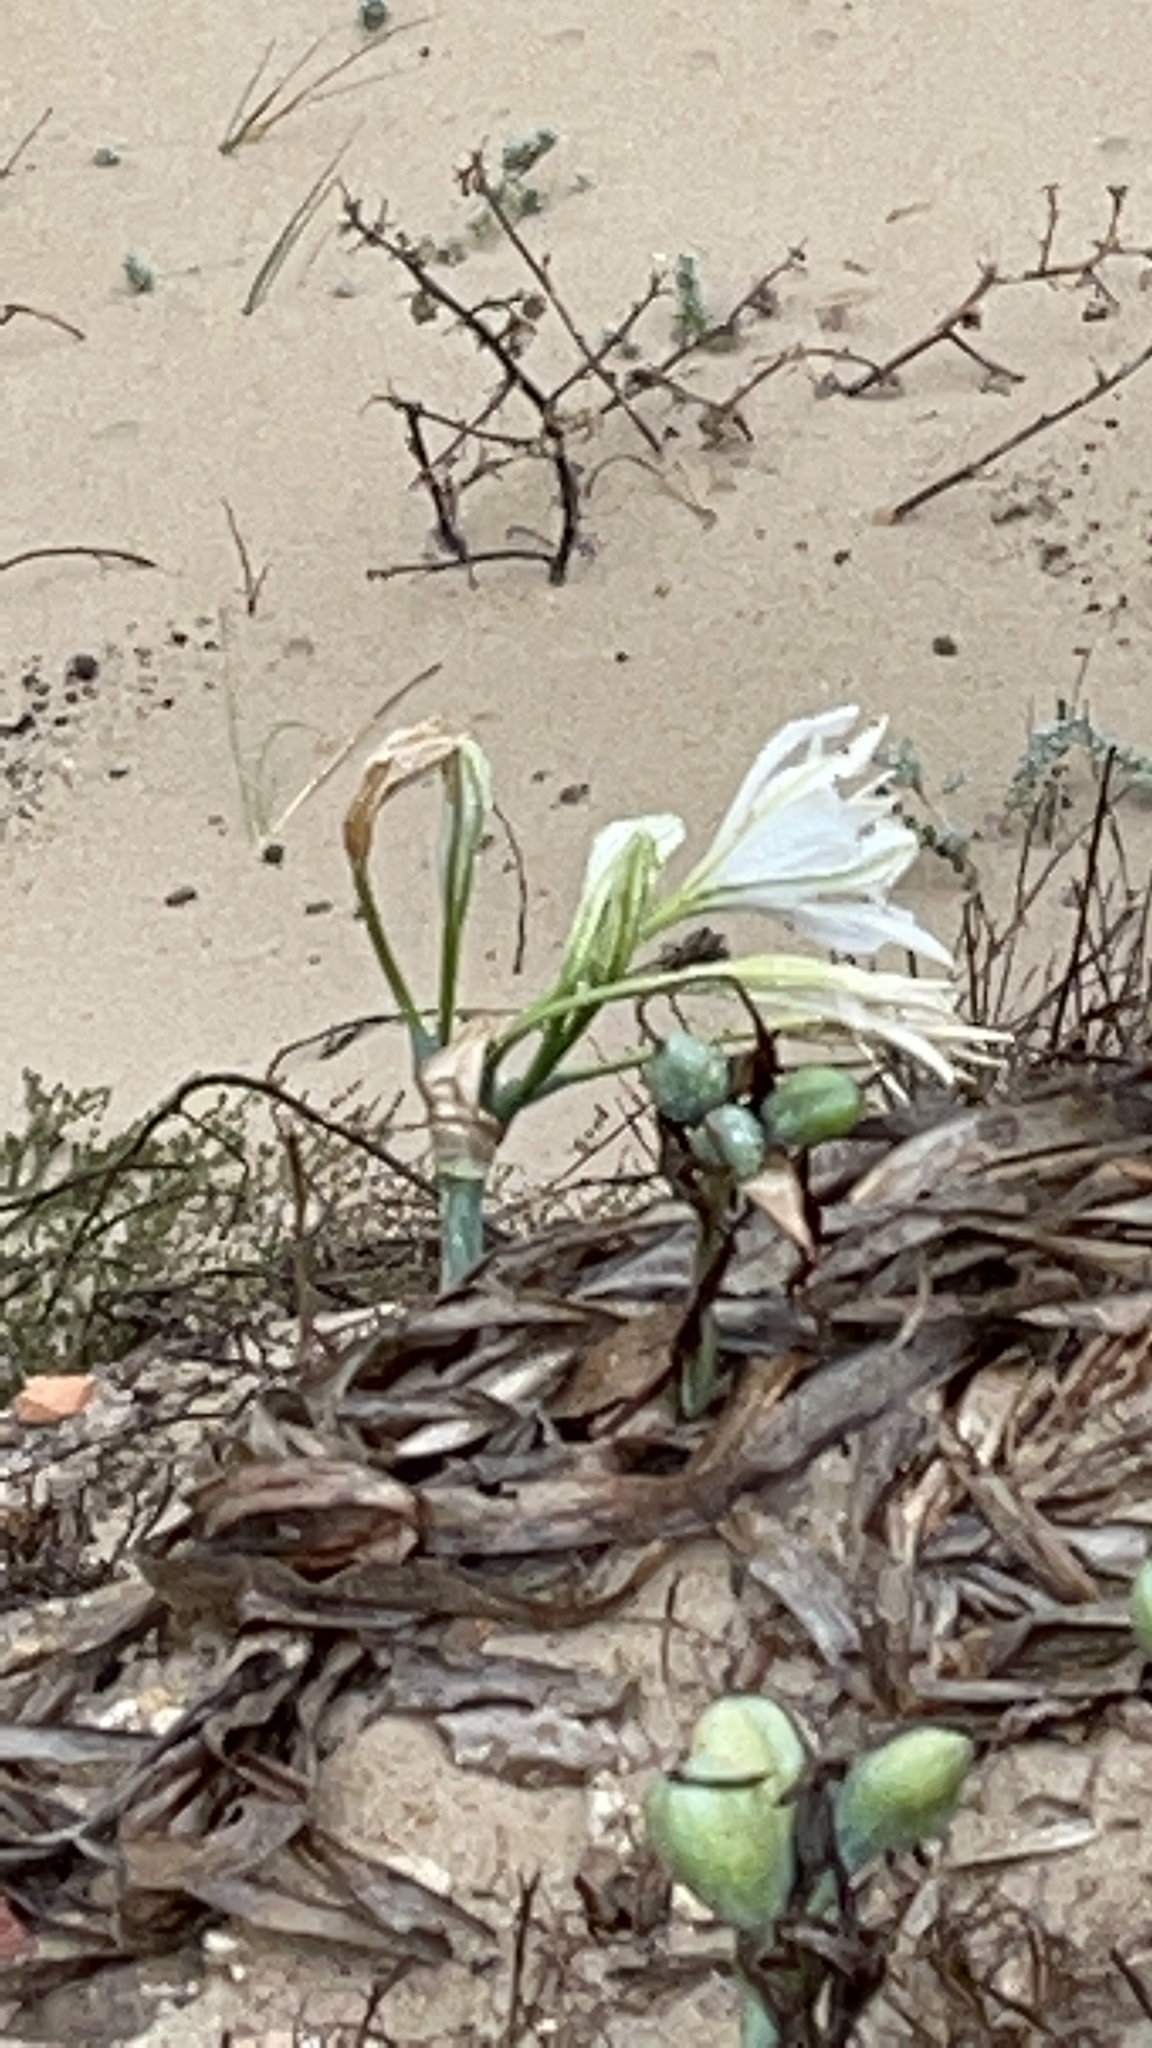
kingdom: Plantae
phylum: Tracheophyta
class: Liliopsida
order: Asparagales
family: Amaryllidaceae
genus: Pancratium
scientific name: Pancratium maritimum
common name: Sea-daffodil
